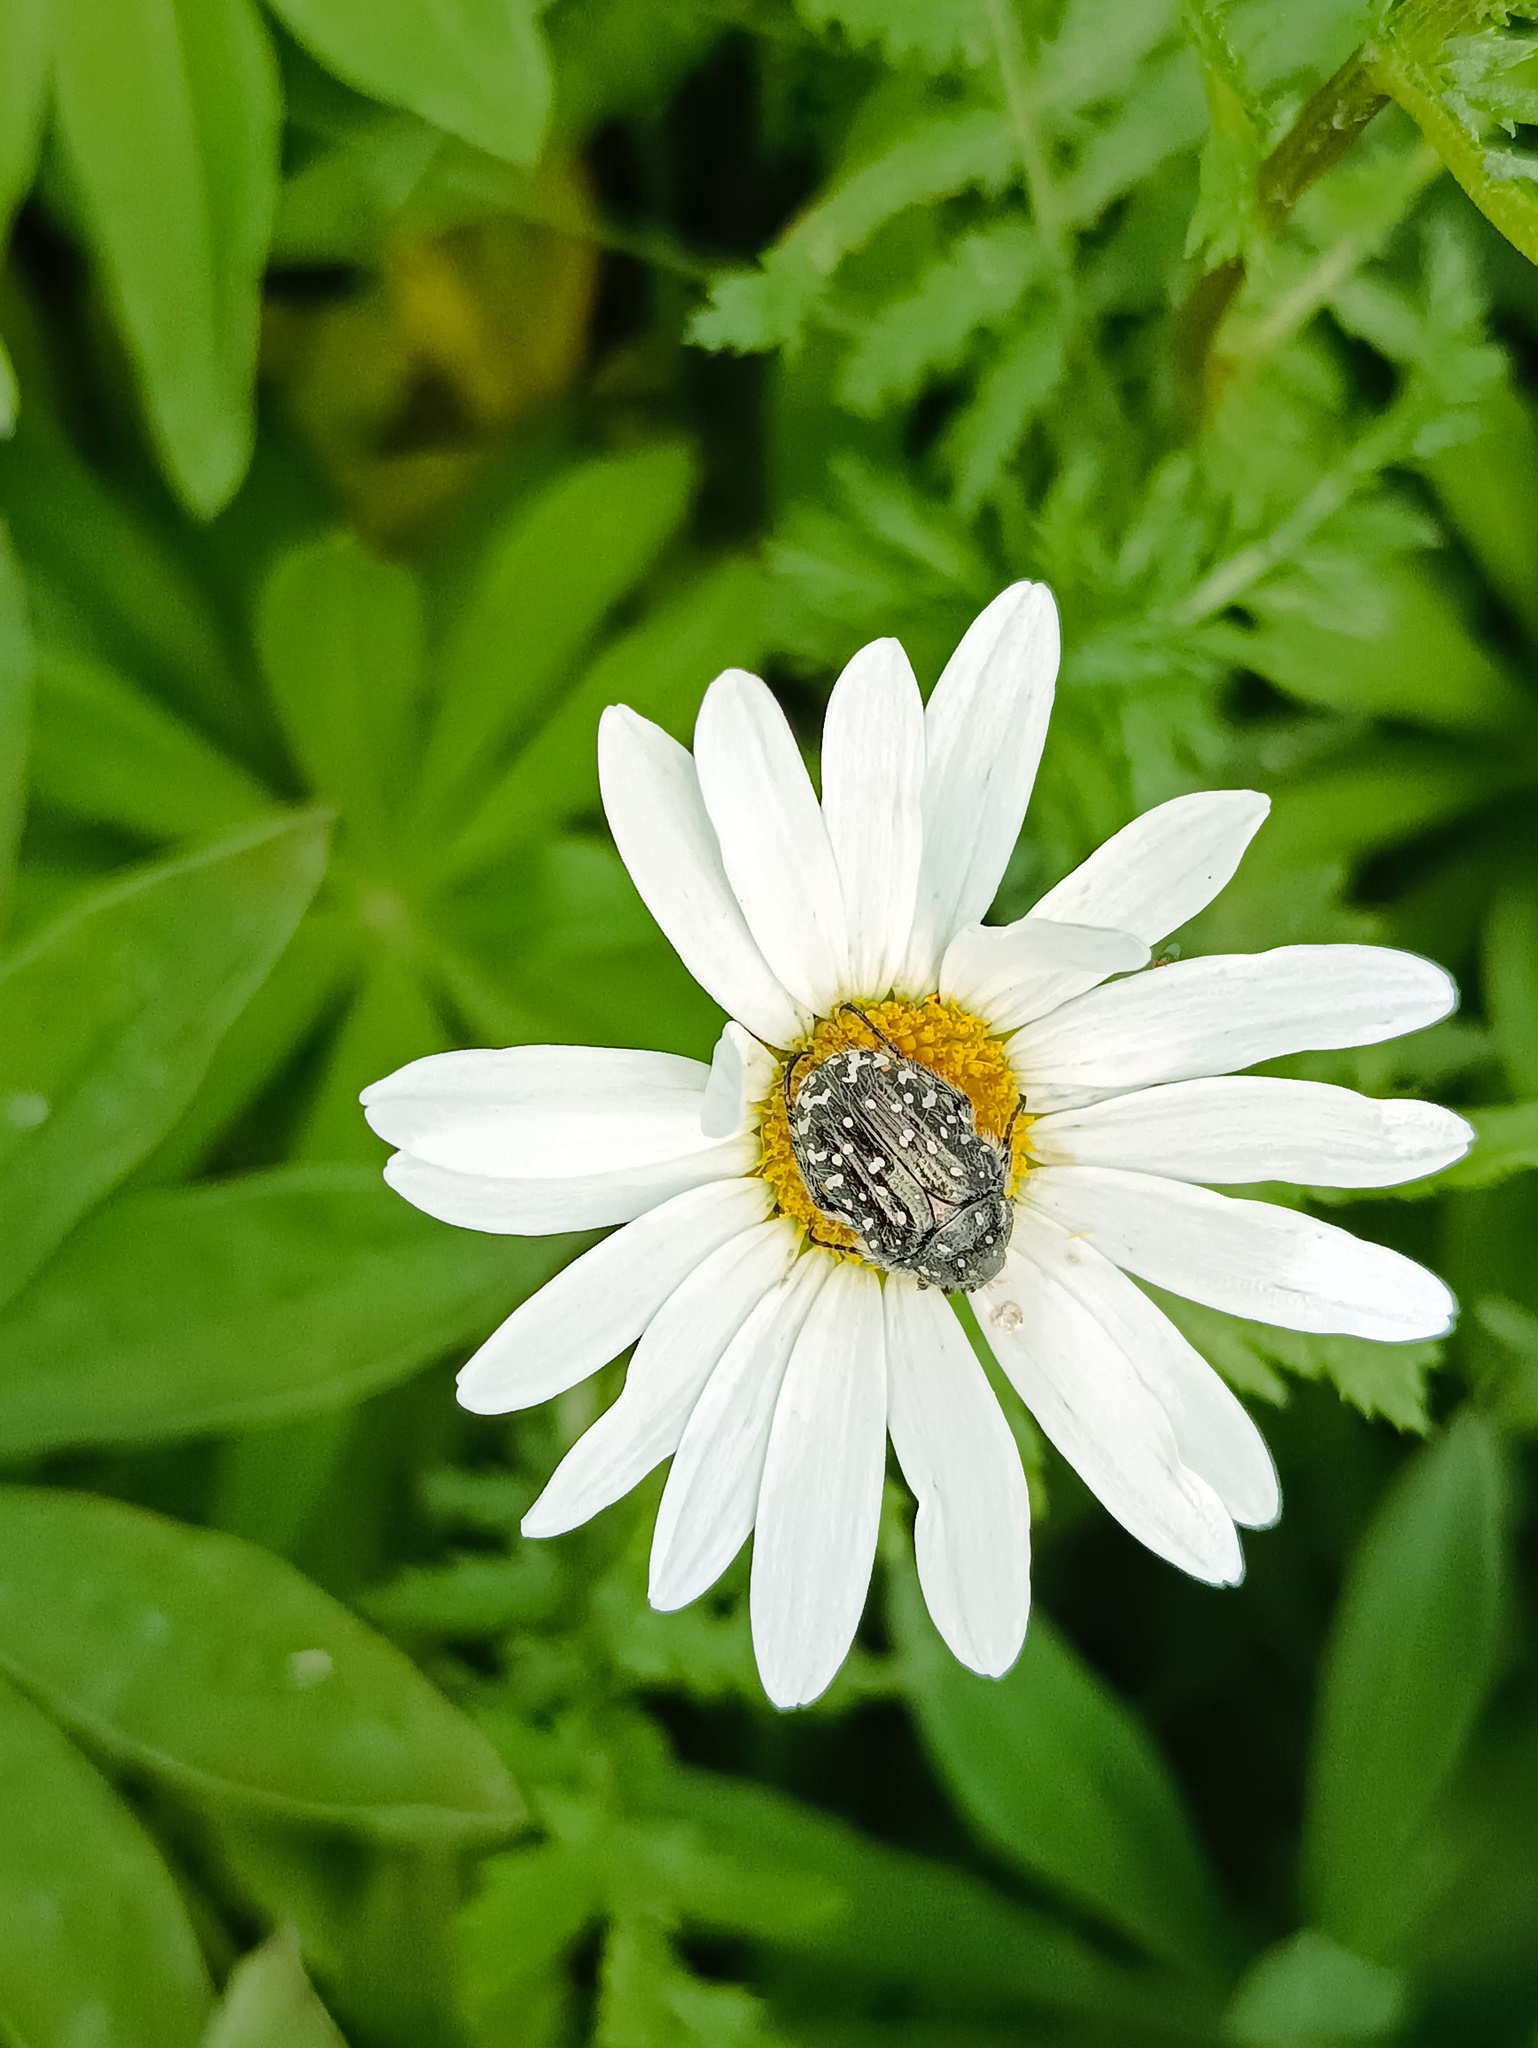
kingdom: Animalia
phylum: Arthropoda
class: Insecta
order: Coleoptera
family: Scarabaeidae
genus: Oxythyrea
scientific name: Oxythyrea funesta
